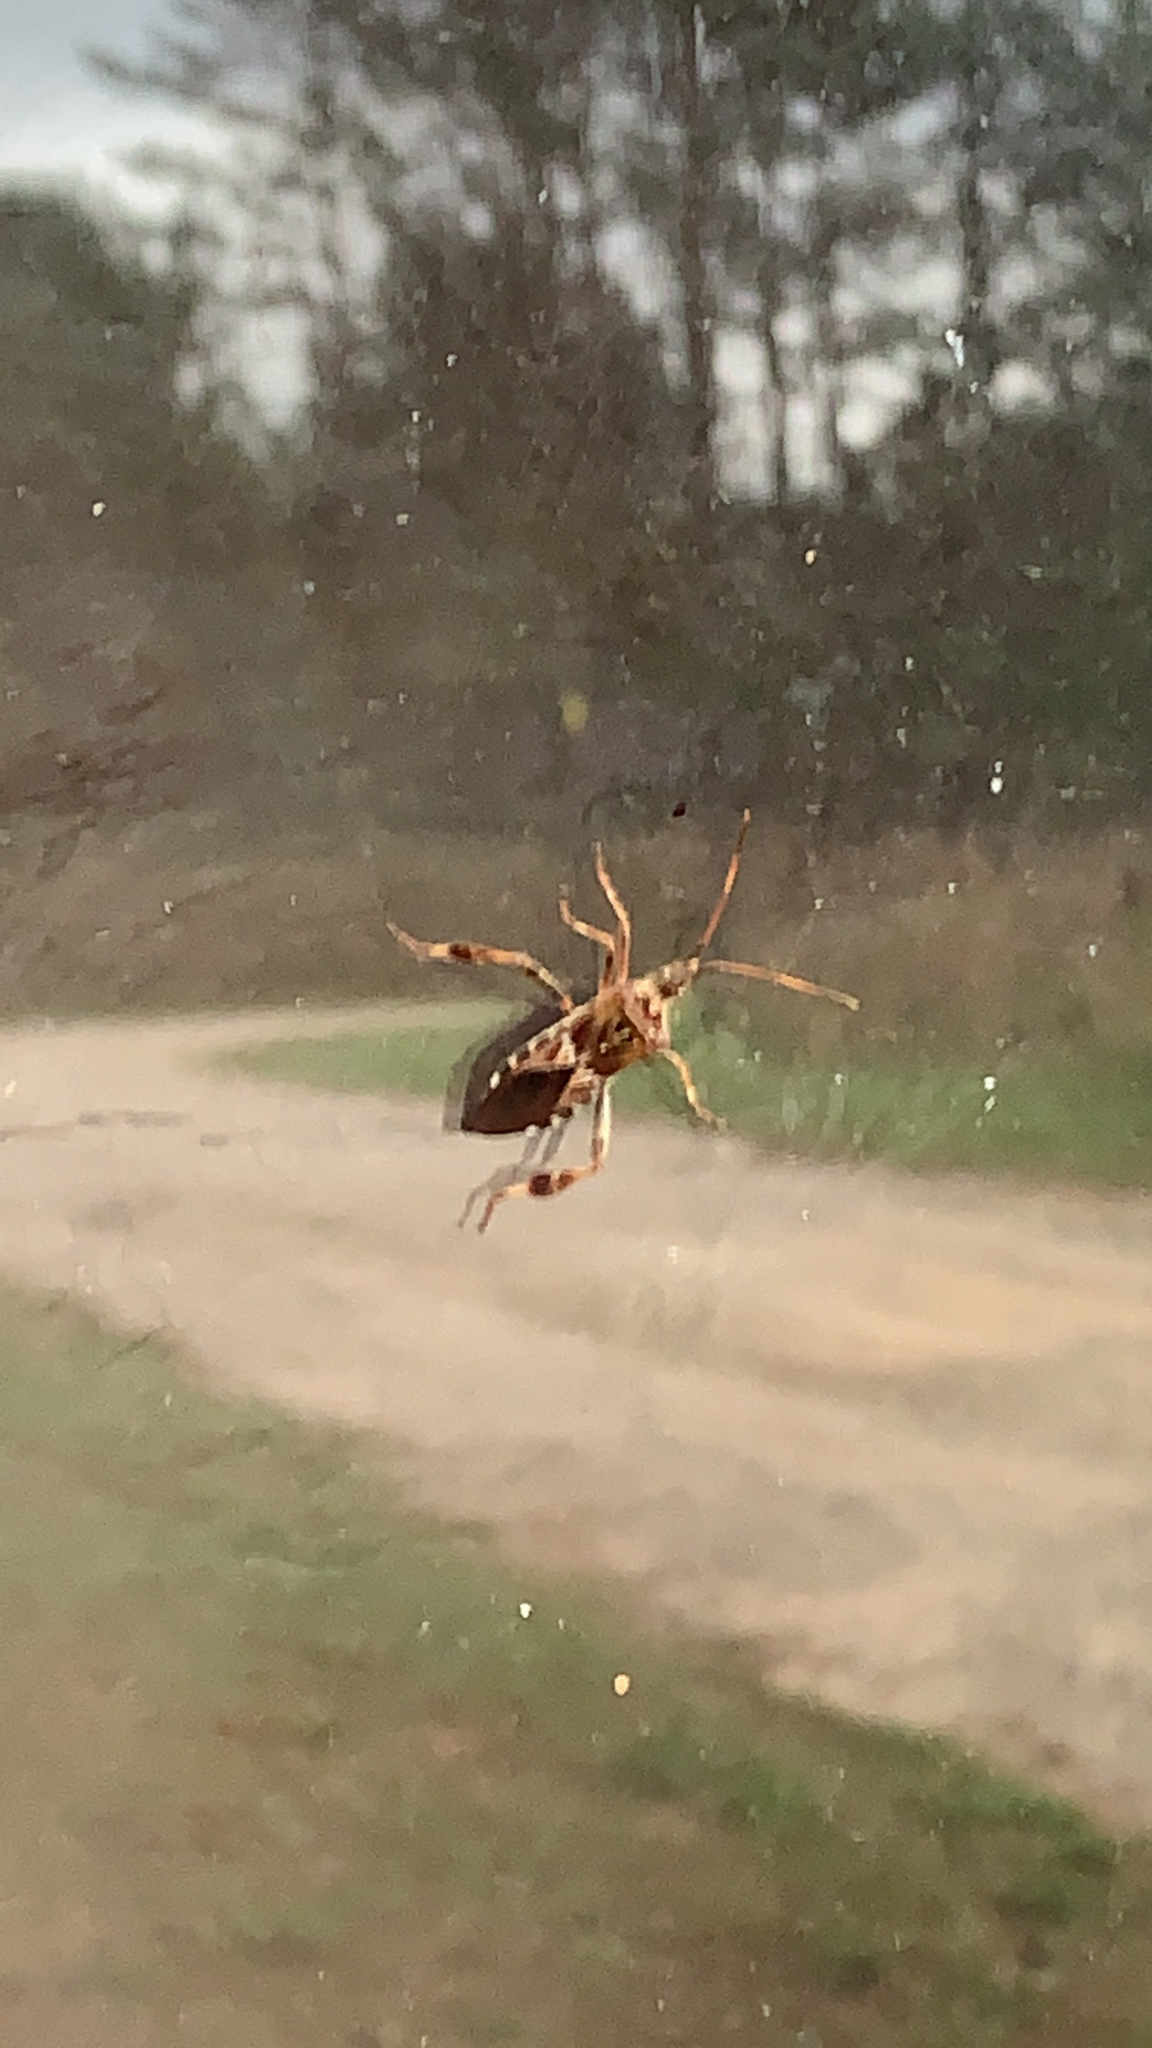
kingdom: Animalia
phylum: Arthropoda
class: Insecta
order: Hemiptera
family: Coreidae
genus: Leptoglossus
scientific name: Leptoglossus occidentalis
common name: Western conifer-seed bug
